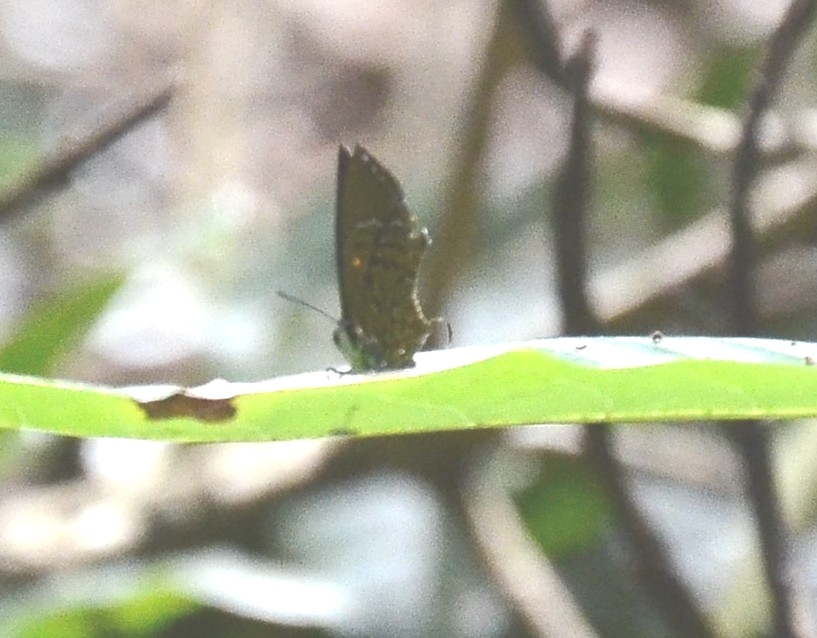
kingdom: Animalia
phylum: Arthropoda
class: Insecta
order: Lepidoptera
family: Lycaenidae
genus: Rathinda
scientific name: Rathinda amor
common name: Monkey puzzle
